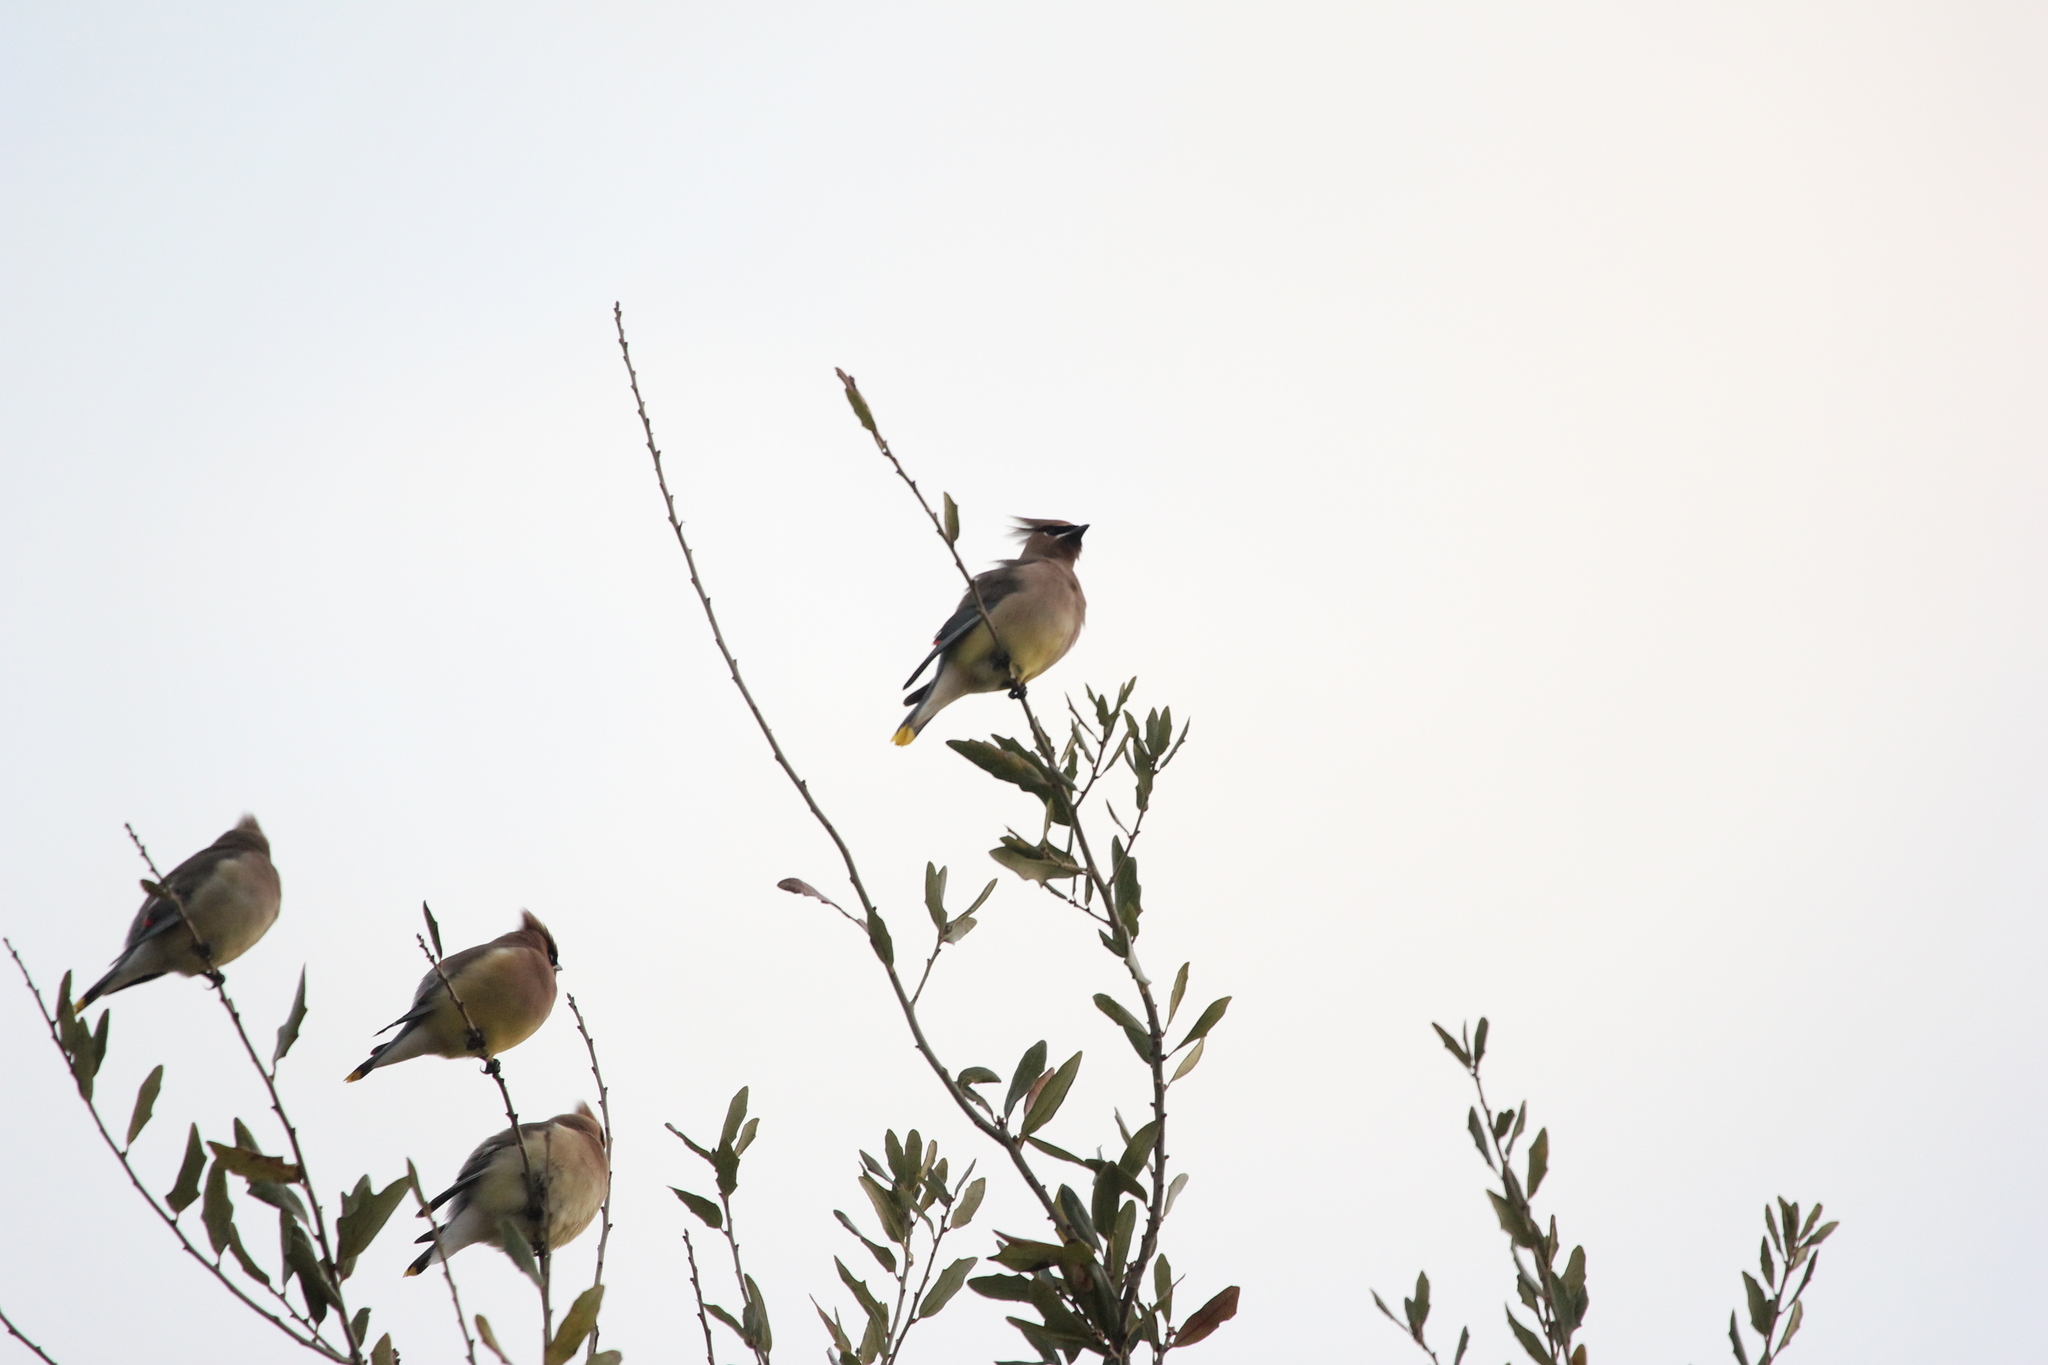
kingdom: Animalia
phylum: Chordata
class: Aves
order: Passeriformes
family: Bombycillidae
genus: Bombycilla
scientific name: Bombycilla cedrorum
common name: Cedar waxwing
